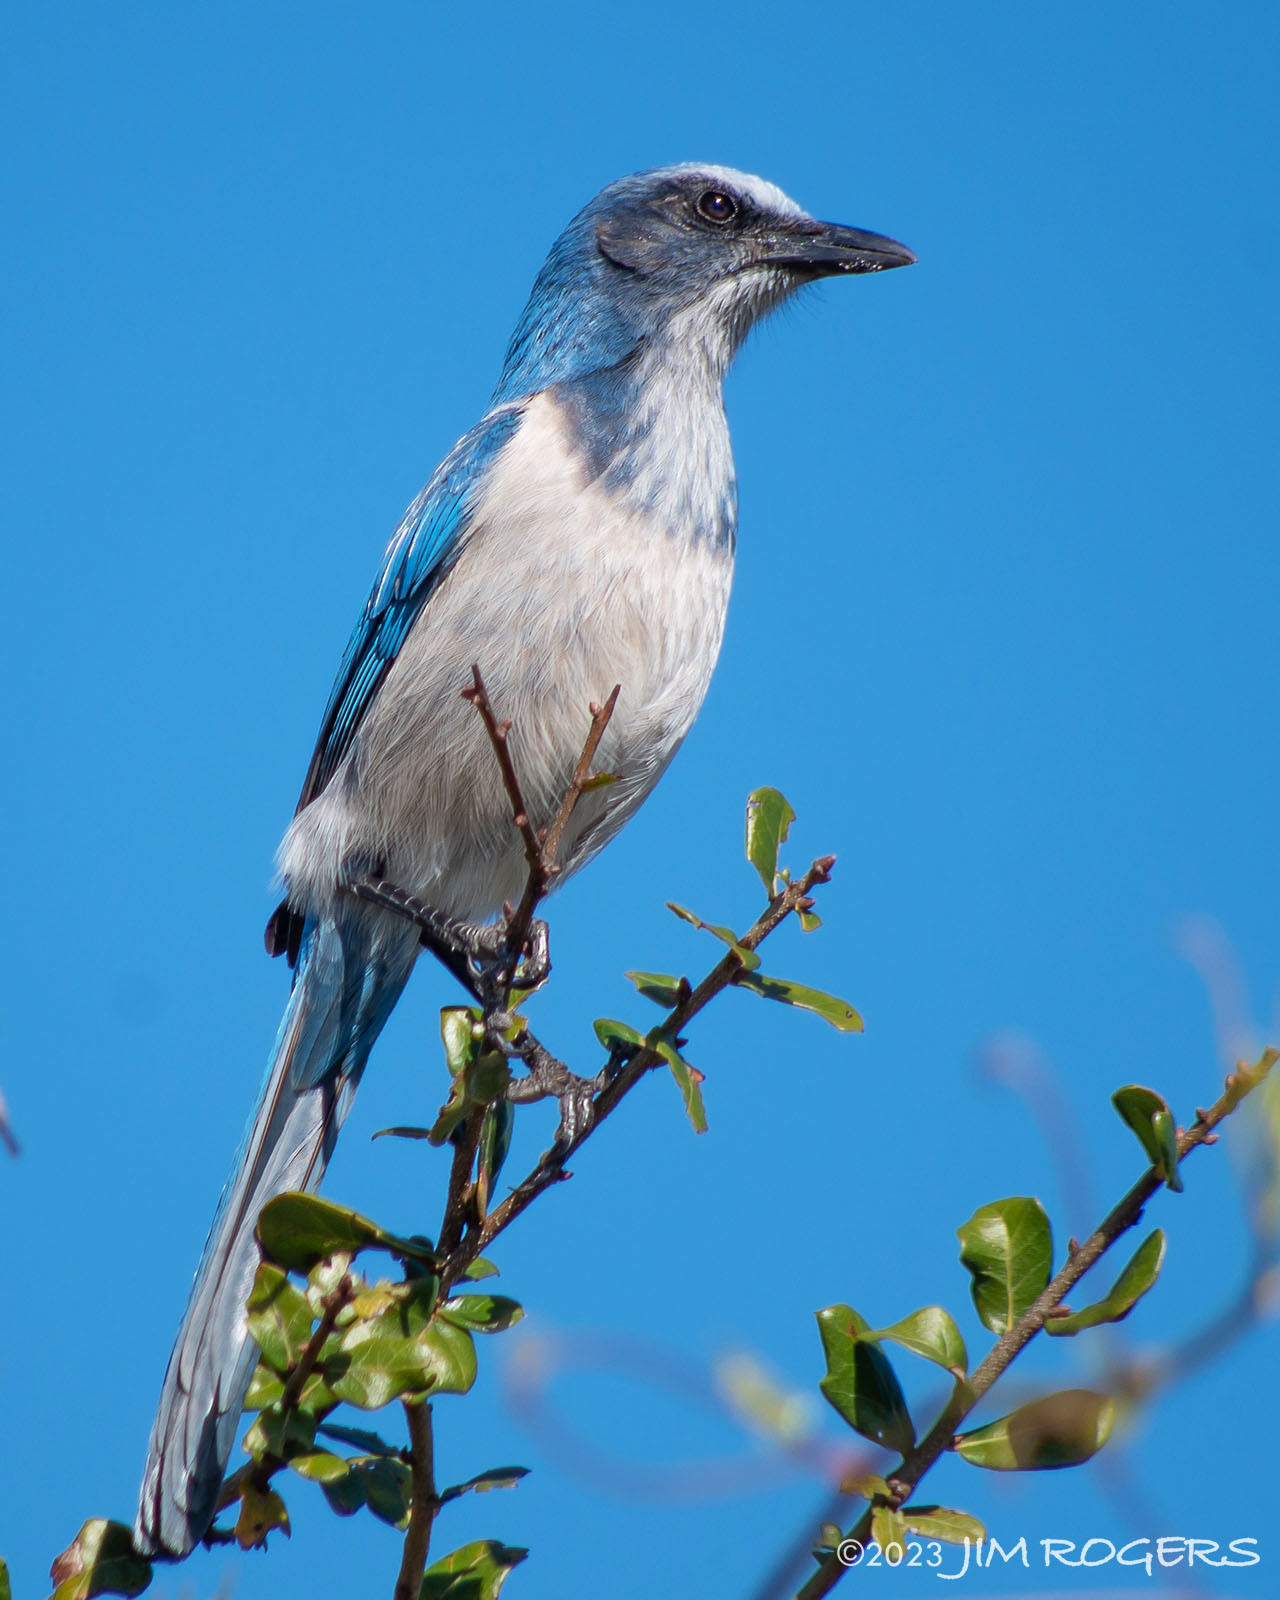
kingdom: Animalia
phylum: Chordata
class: Aves
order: Passeriformes
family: Corvidae
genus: Aphelocoma
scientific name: Aphelocoma coerulescens
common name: Florida scrub jay
